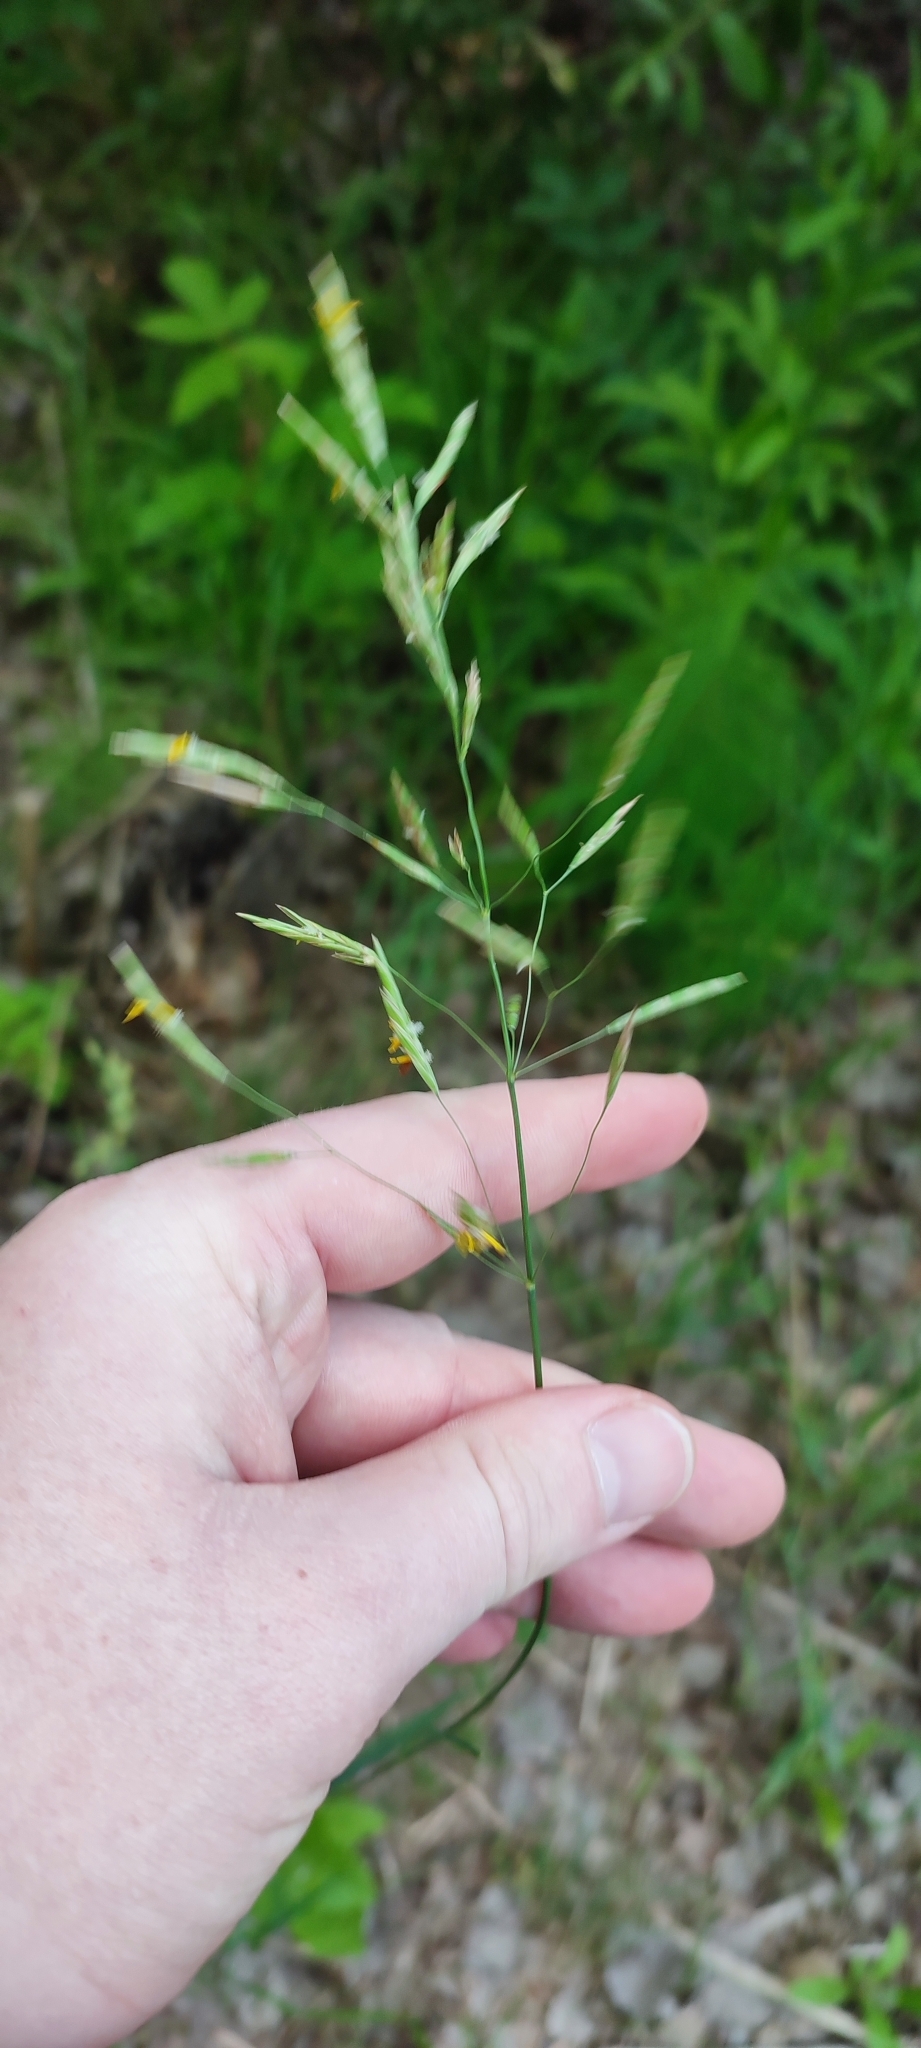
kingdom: Plantae
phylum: Tracheophyta
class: Liliopsida
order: Poales
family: Poaceae
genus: Bromus
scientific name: Bromus inermis
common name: Smooth brome
